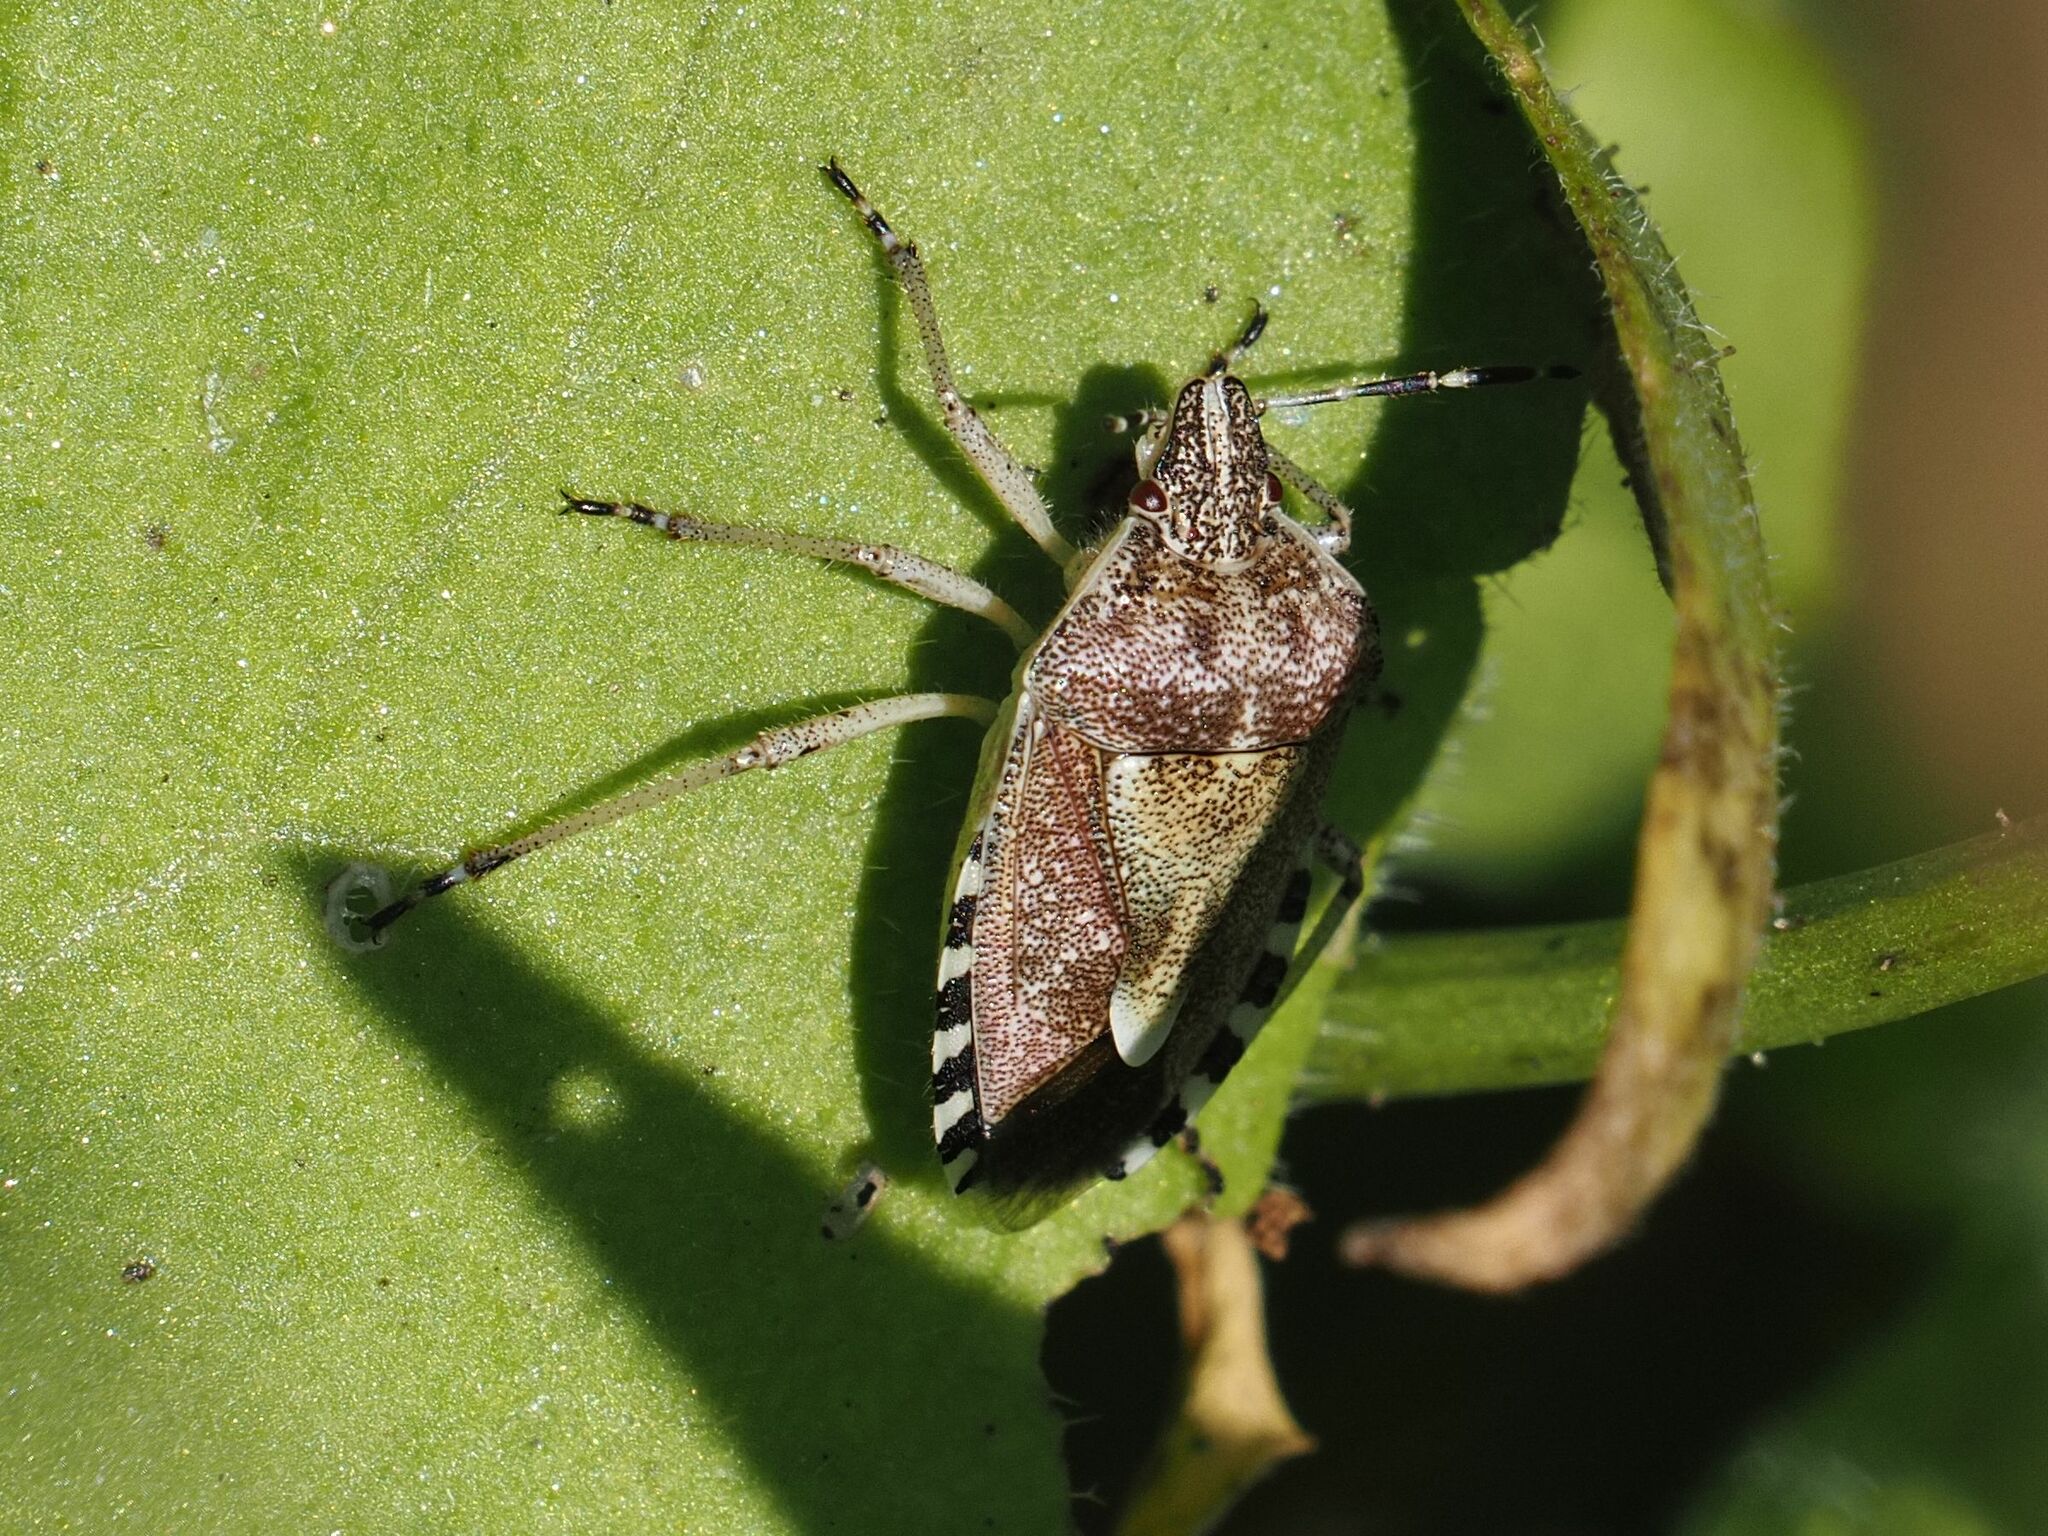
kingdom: Animalia
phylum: Arthropoda
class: Insecta
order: Hemiptera
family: Pentatomidae
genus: Dolycoris
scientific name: Dolycoris baccarum
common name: Sloe bug
